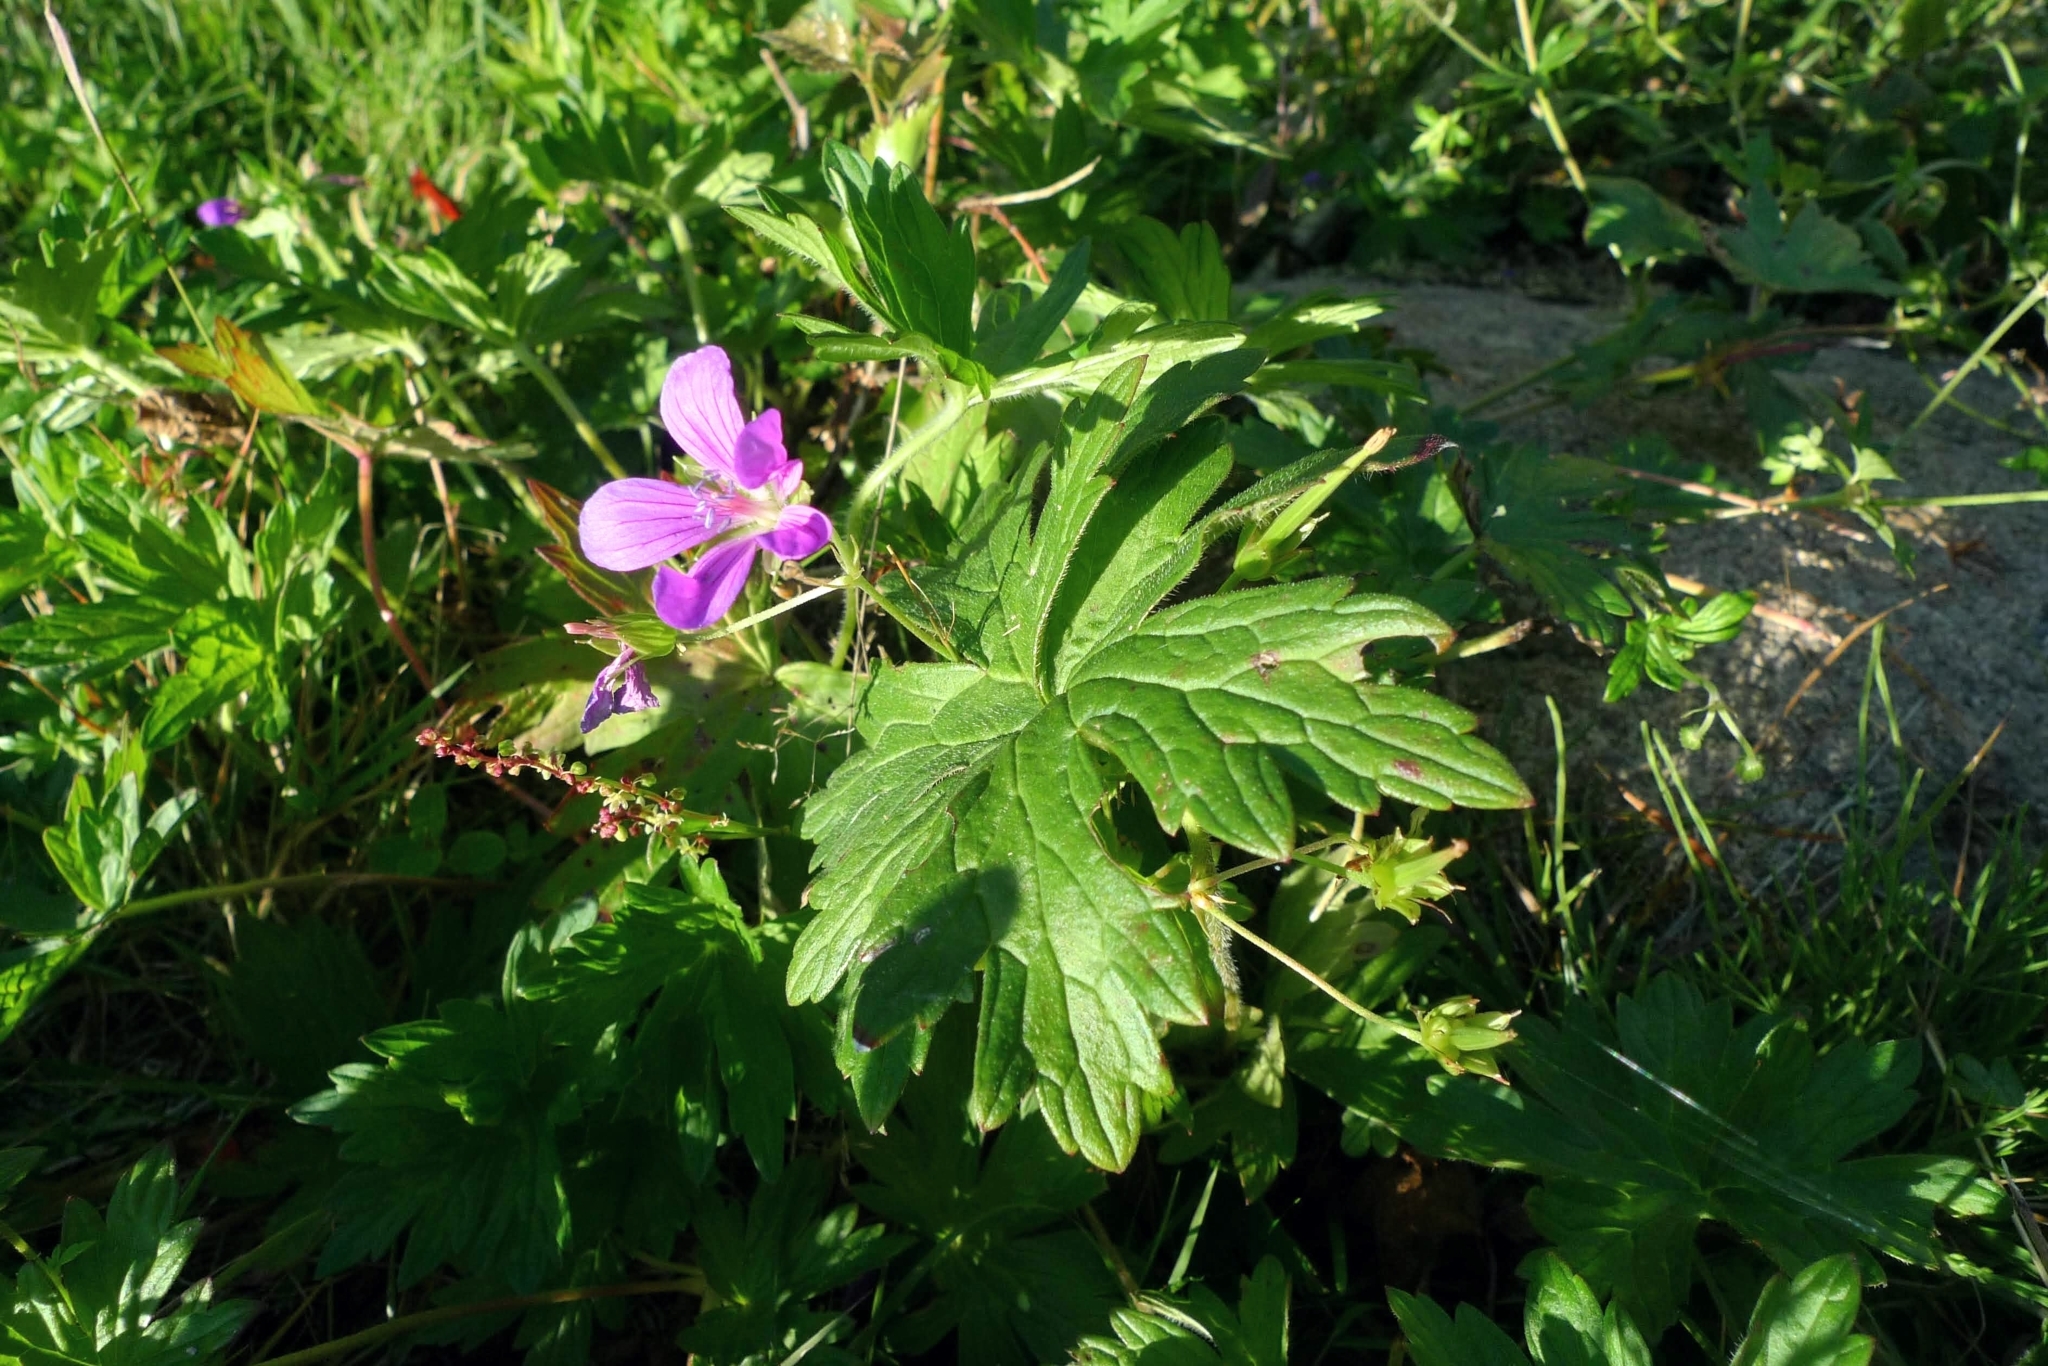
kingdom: Plantae
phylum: Tracheophyta
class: Magnoliopsida
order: Geraniales
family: Geraniaceae
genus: Geranium
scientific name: Geranium palustre
